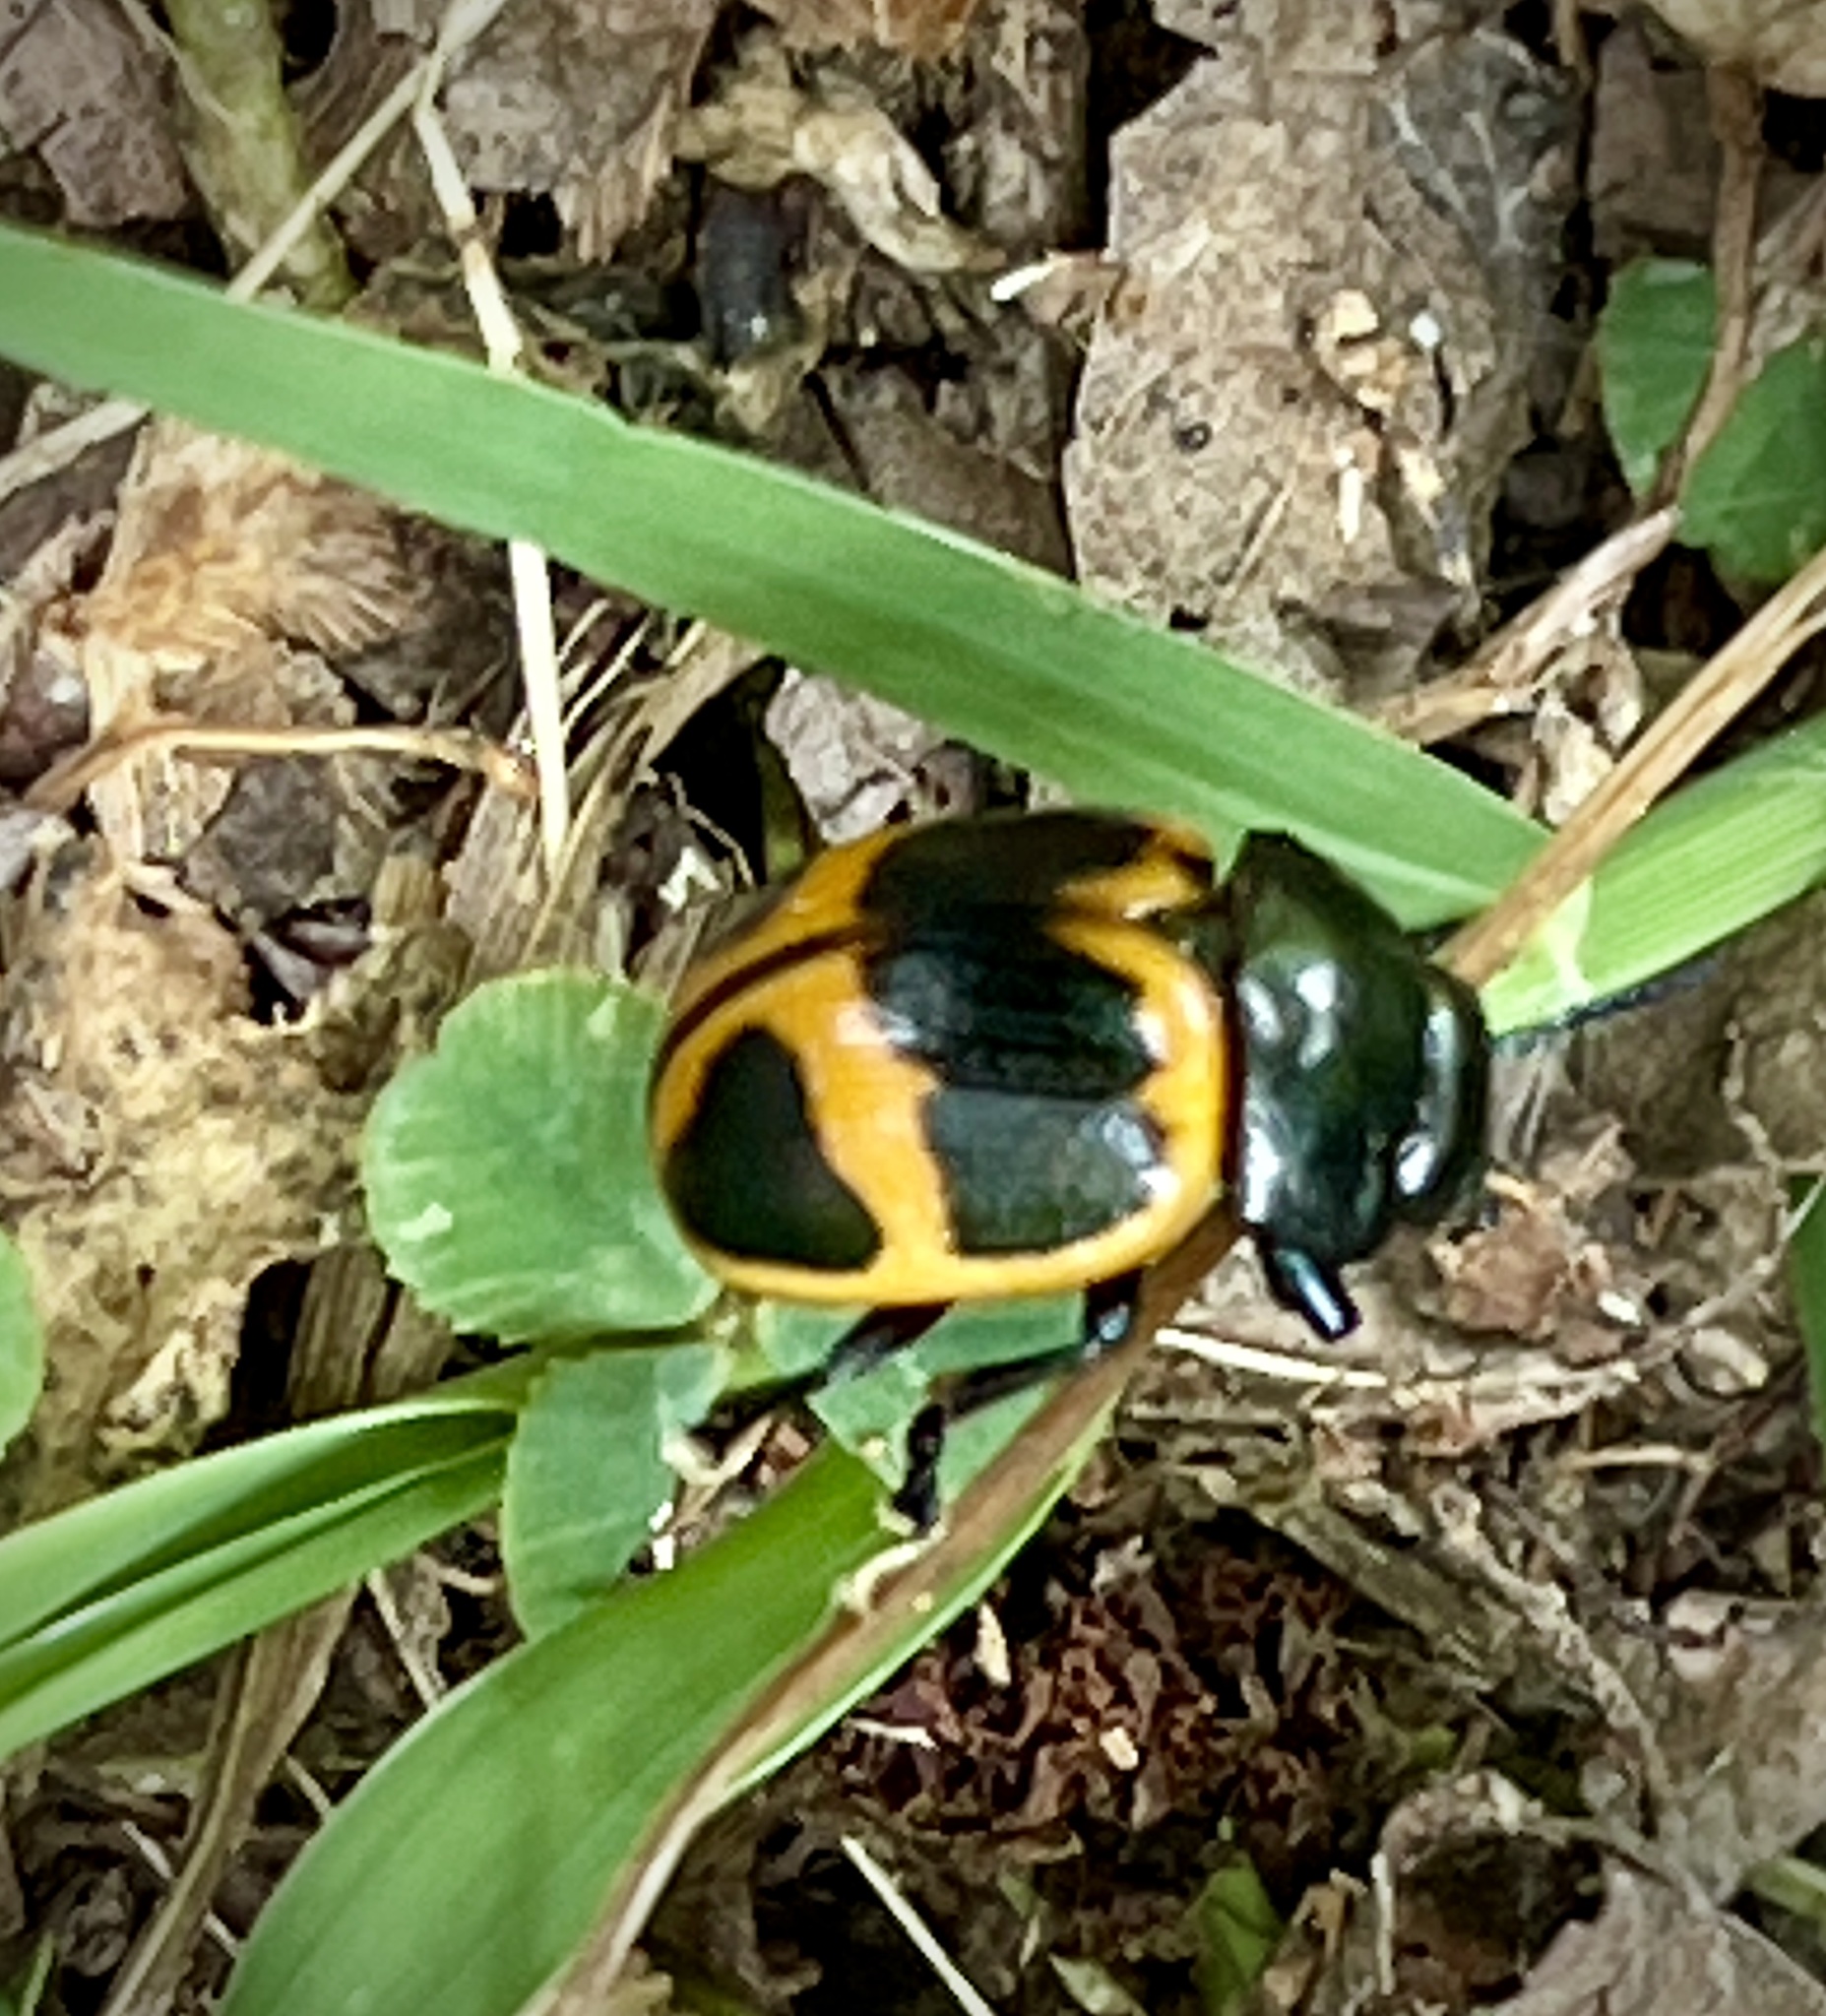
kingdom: Animalia
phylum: Arthropoda
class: Insecta
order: Coleoptera
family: Chrysomelidae
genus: Labidomera
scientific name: Labidomera clivicollis
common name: Swamp milkweed leaf beetle
